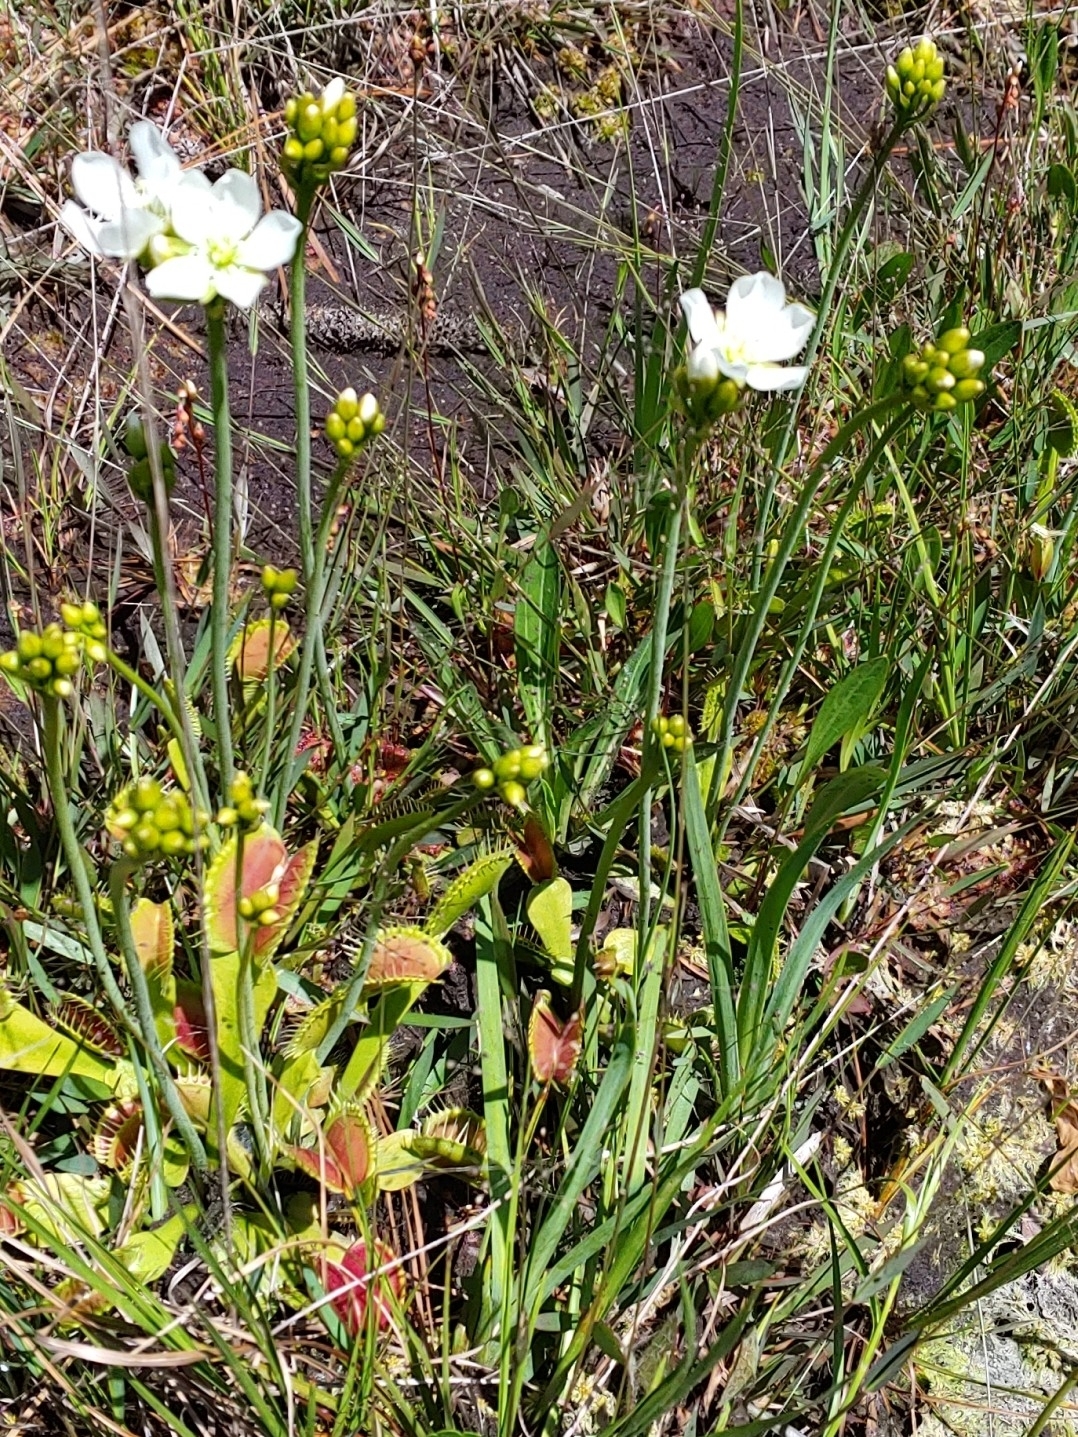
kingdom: Plantae
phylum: Tracheophyta
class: Magnoliopsida
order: Caryophyllales
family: Droseraceae
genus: Dionaea
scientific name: Dionaea muscipula
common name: Venus flytrap
